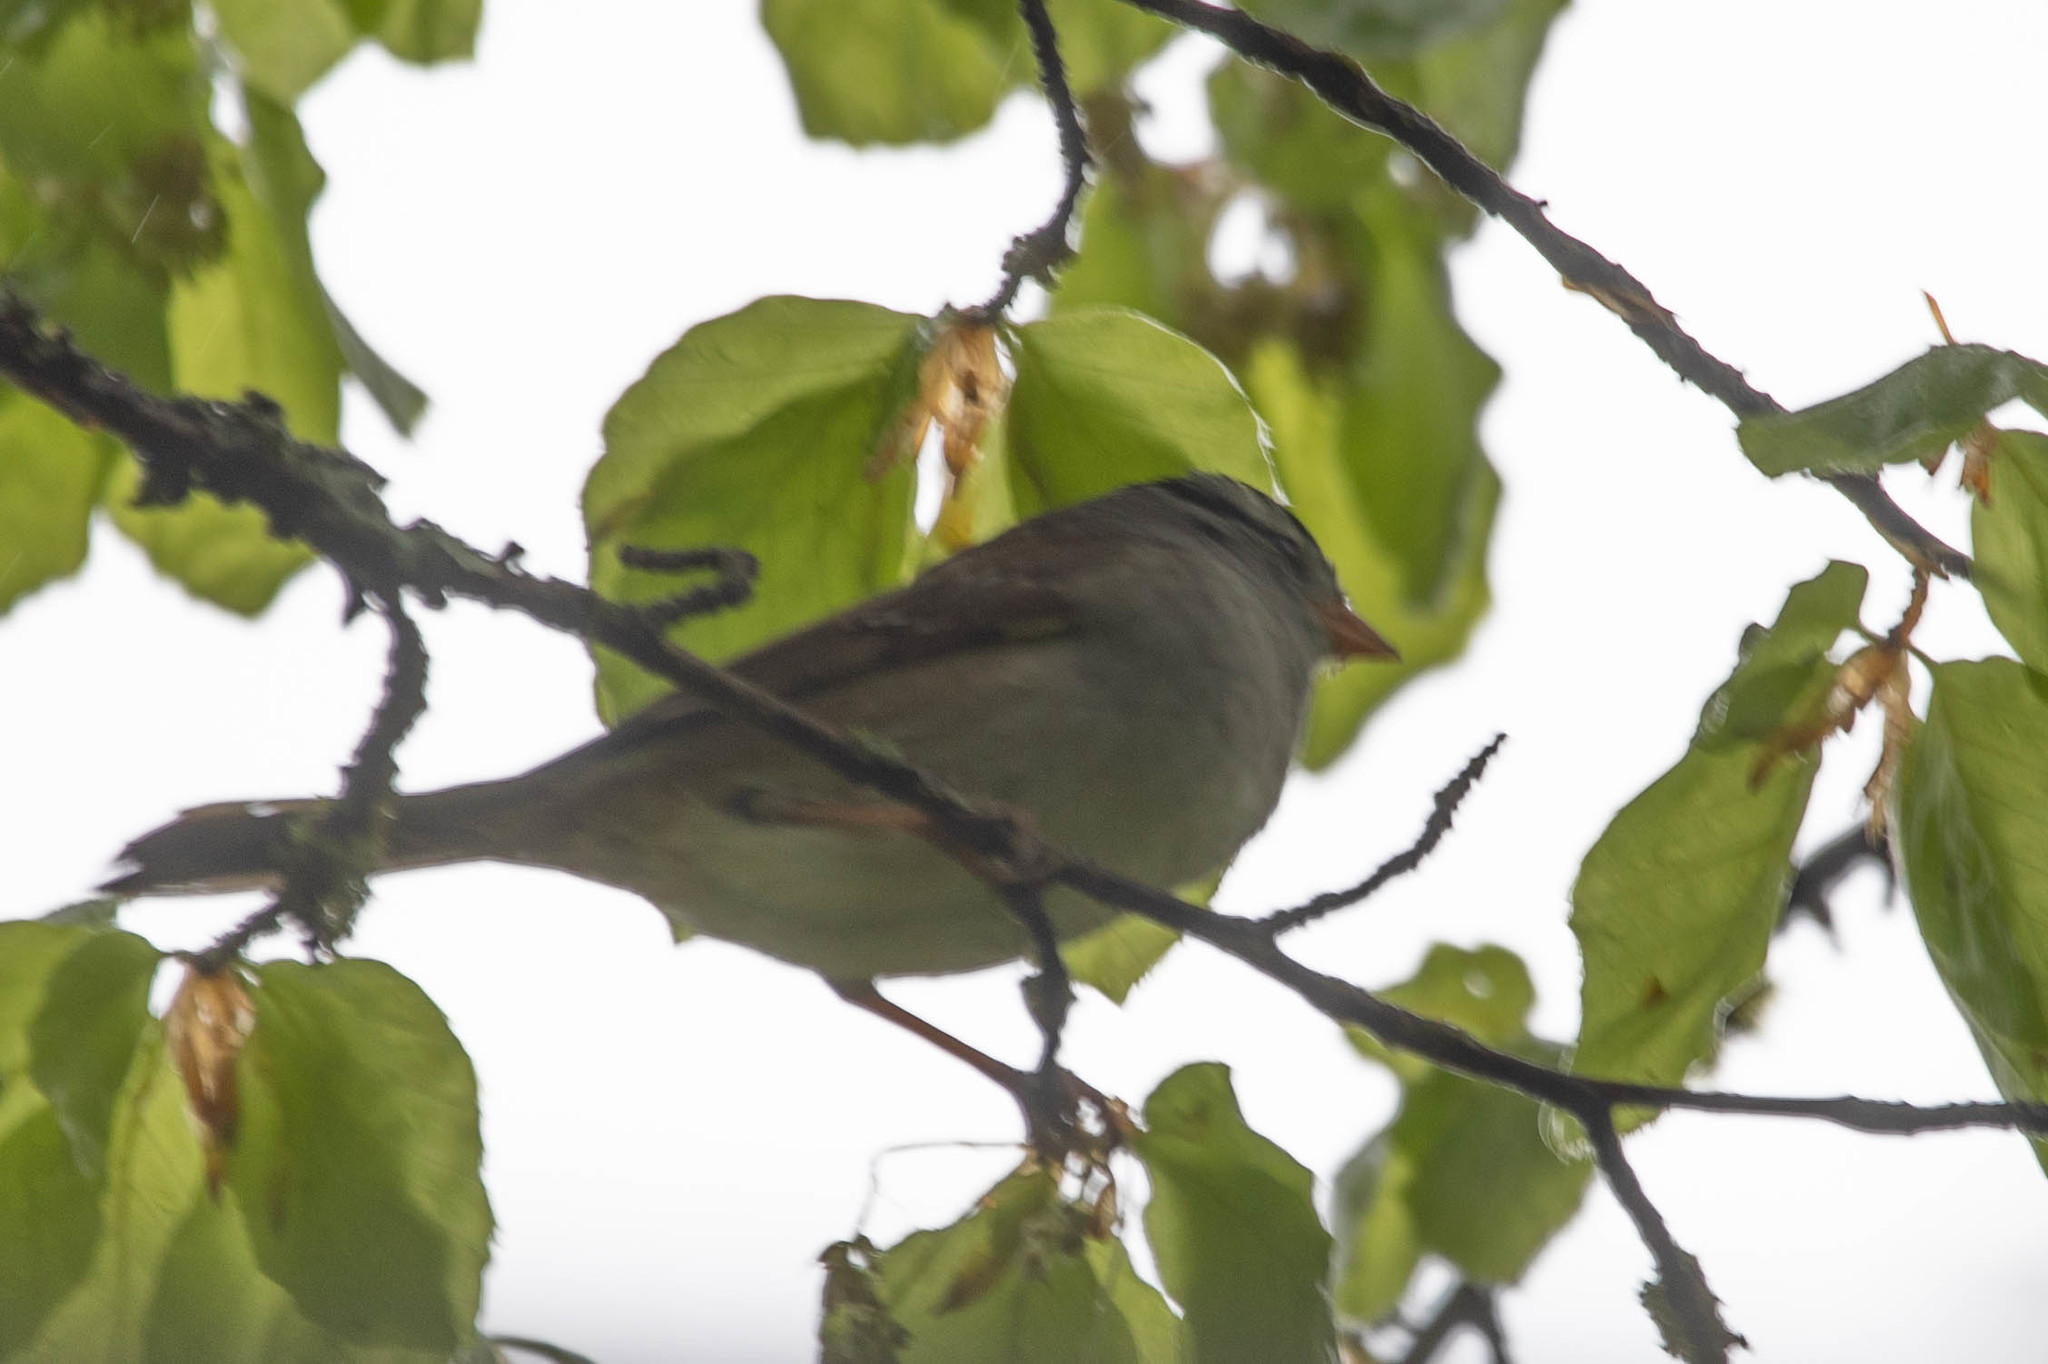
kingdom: Animalia
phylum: Chordata
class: Aves
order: Passeriformes
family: Passerellidae
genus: Zonotrichia
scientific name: Zonotrichia leucophrys
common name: White-crowned sparrow
